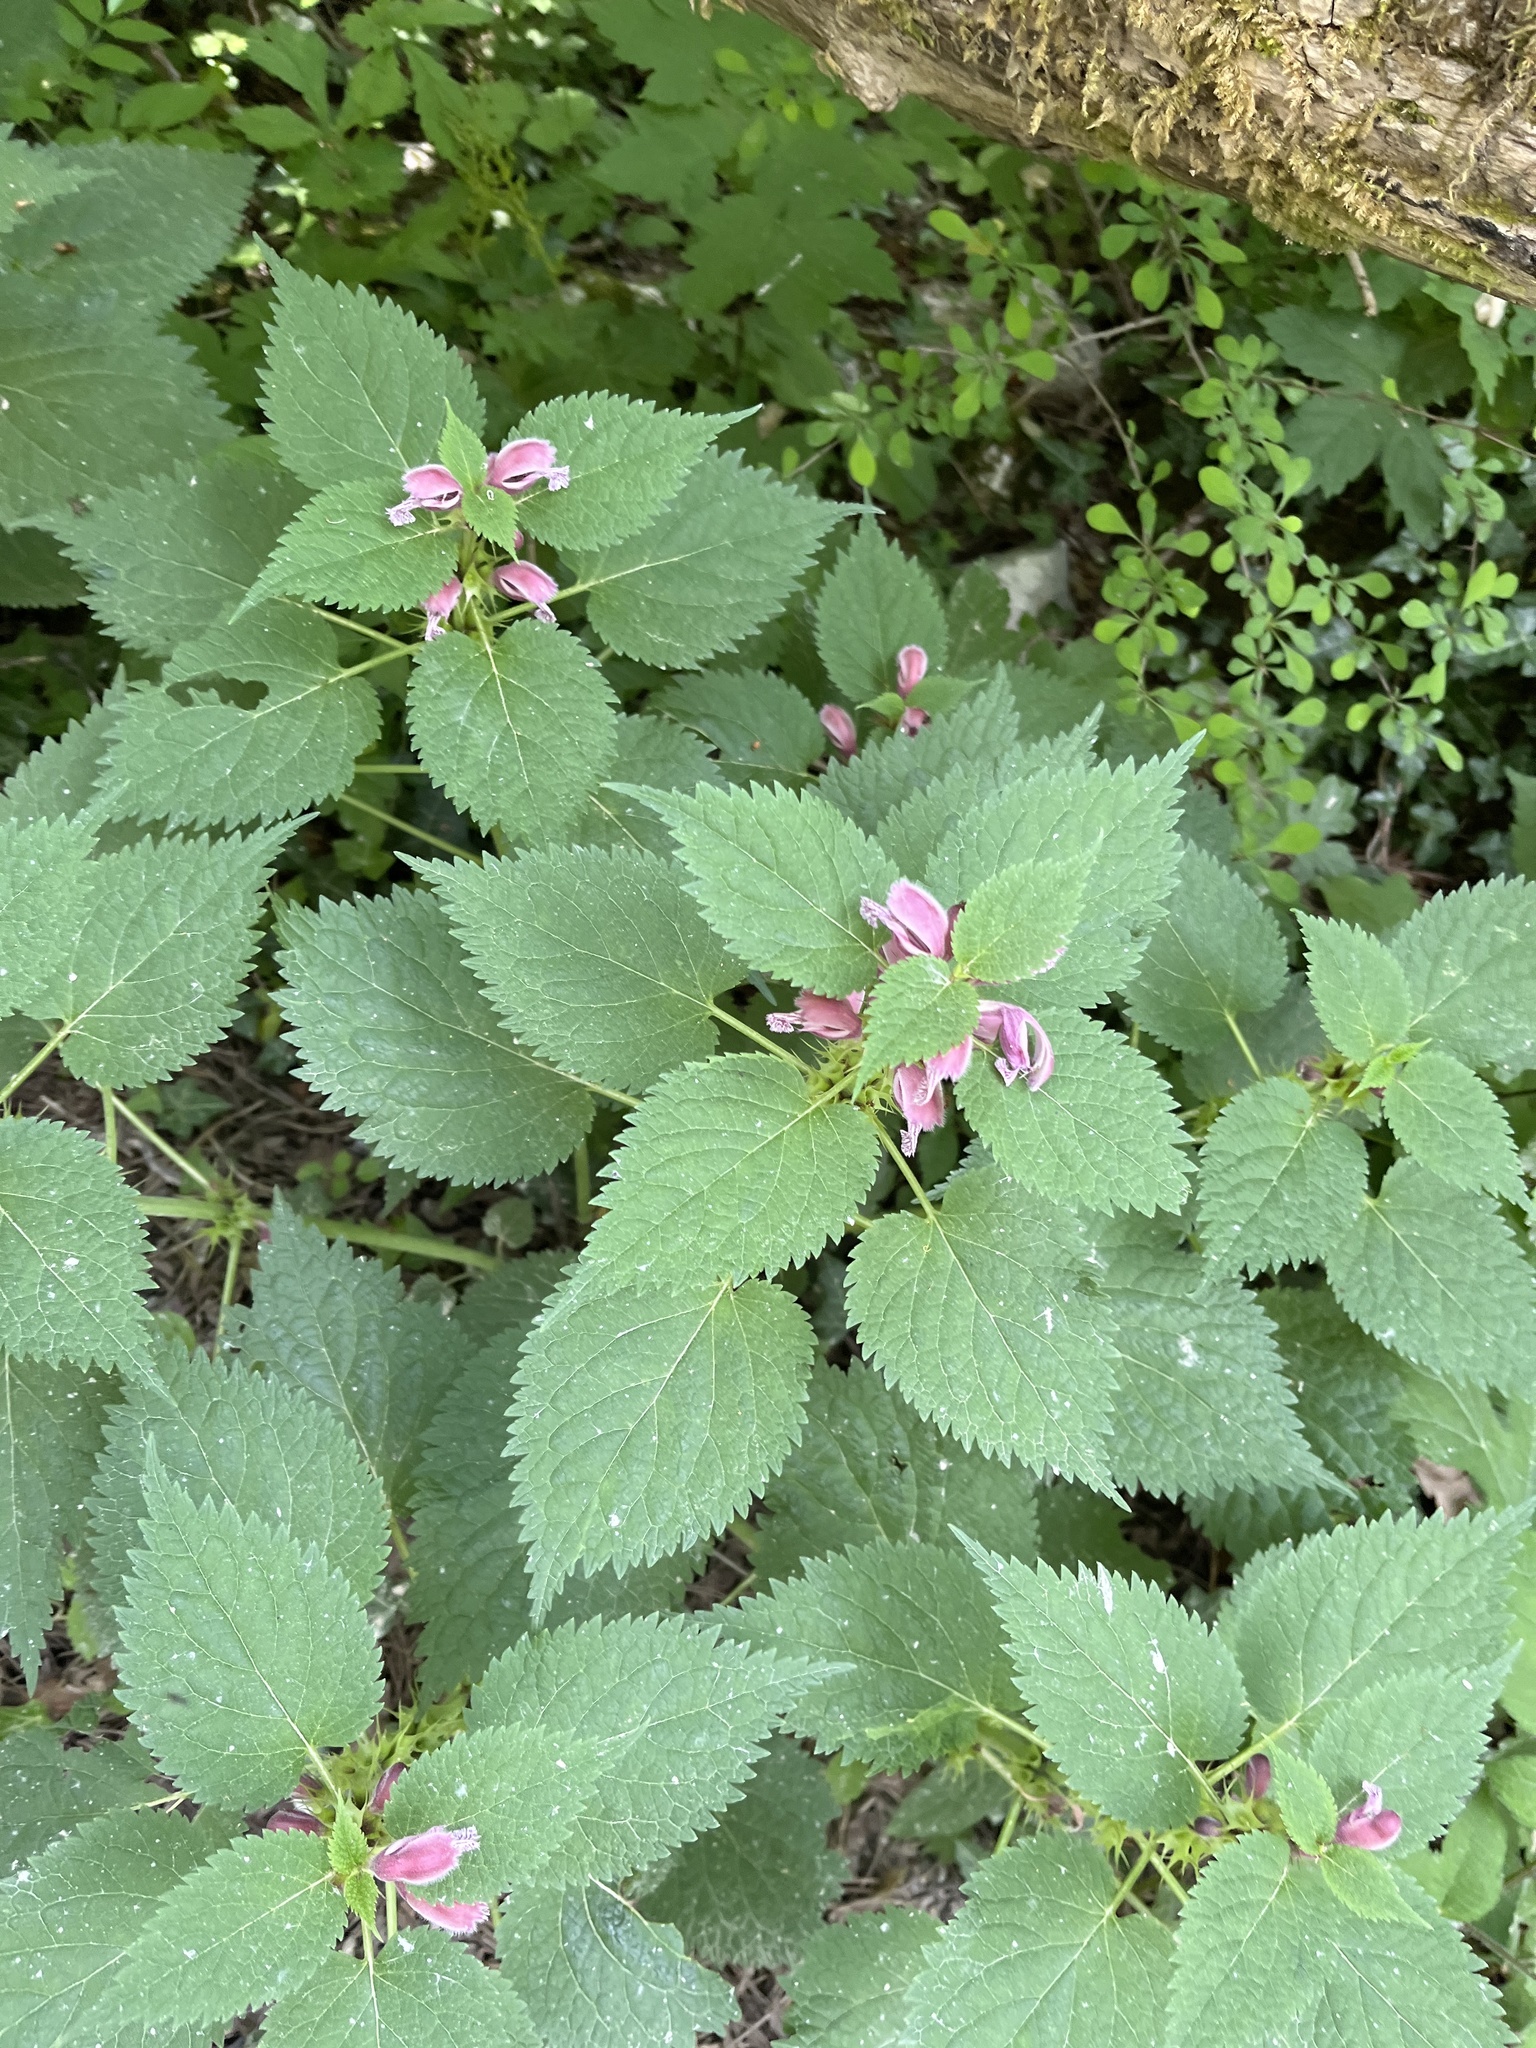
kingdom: Plantae
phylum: Tracheophyta
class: Magnoliopsida
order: Lamiales
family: Lamiaceae
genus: Lamium
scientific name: Lamium orvala
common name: Balm-leaved archangel
